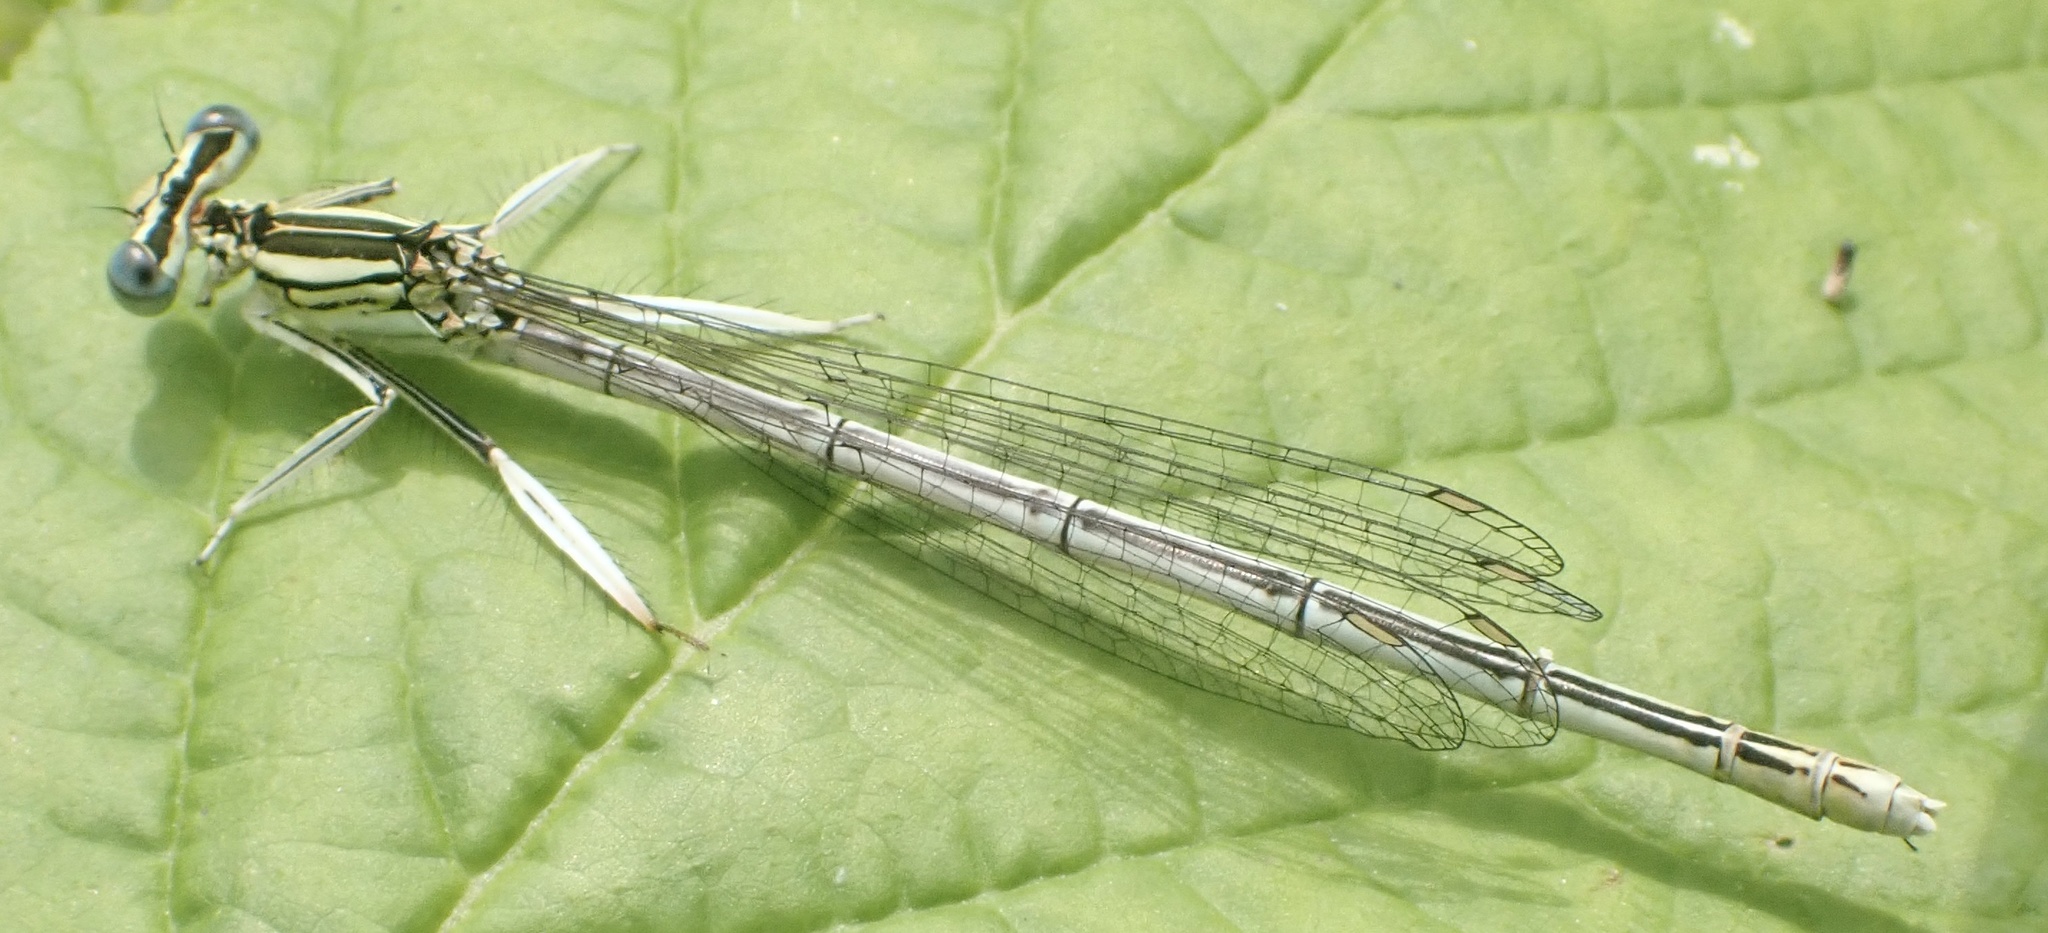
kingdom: Animalia
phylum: Arthropoda
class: Insecta
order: Odonata
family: Platycnemididae
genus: Platycnemis
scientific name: Platycnemis pennipes
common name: White-legged damselfly
